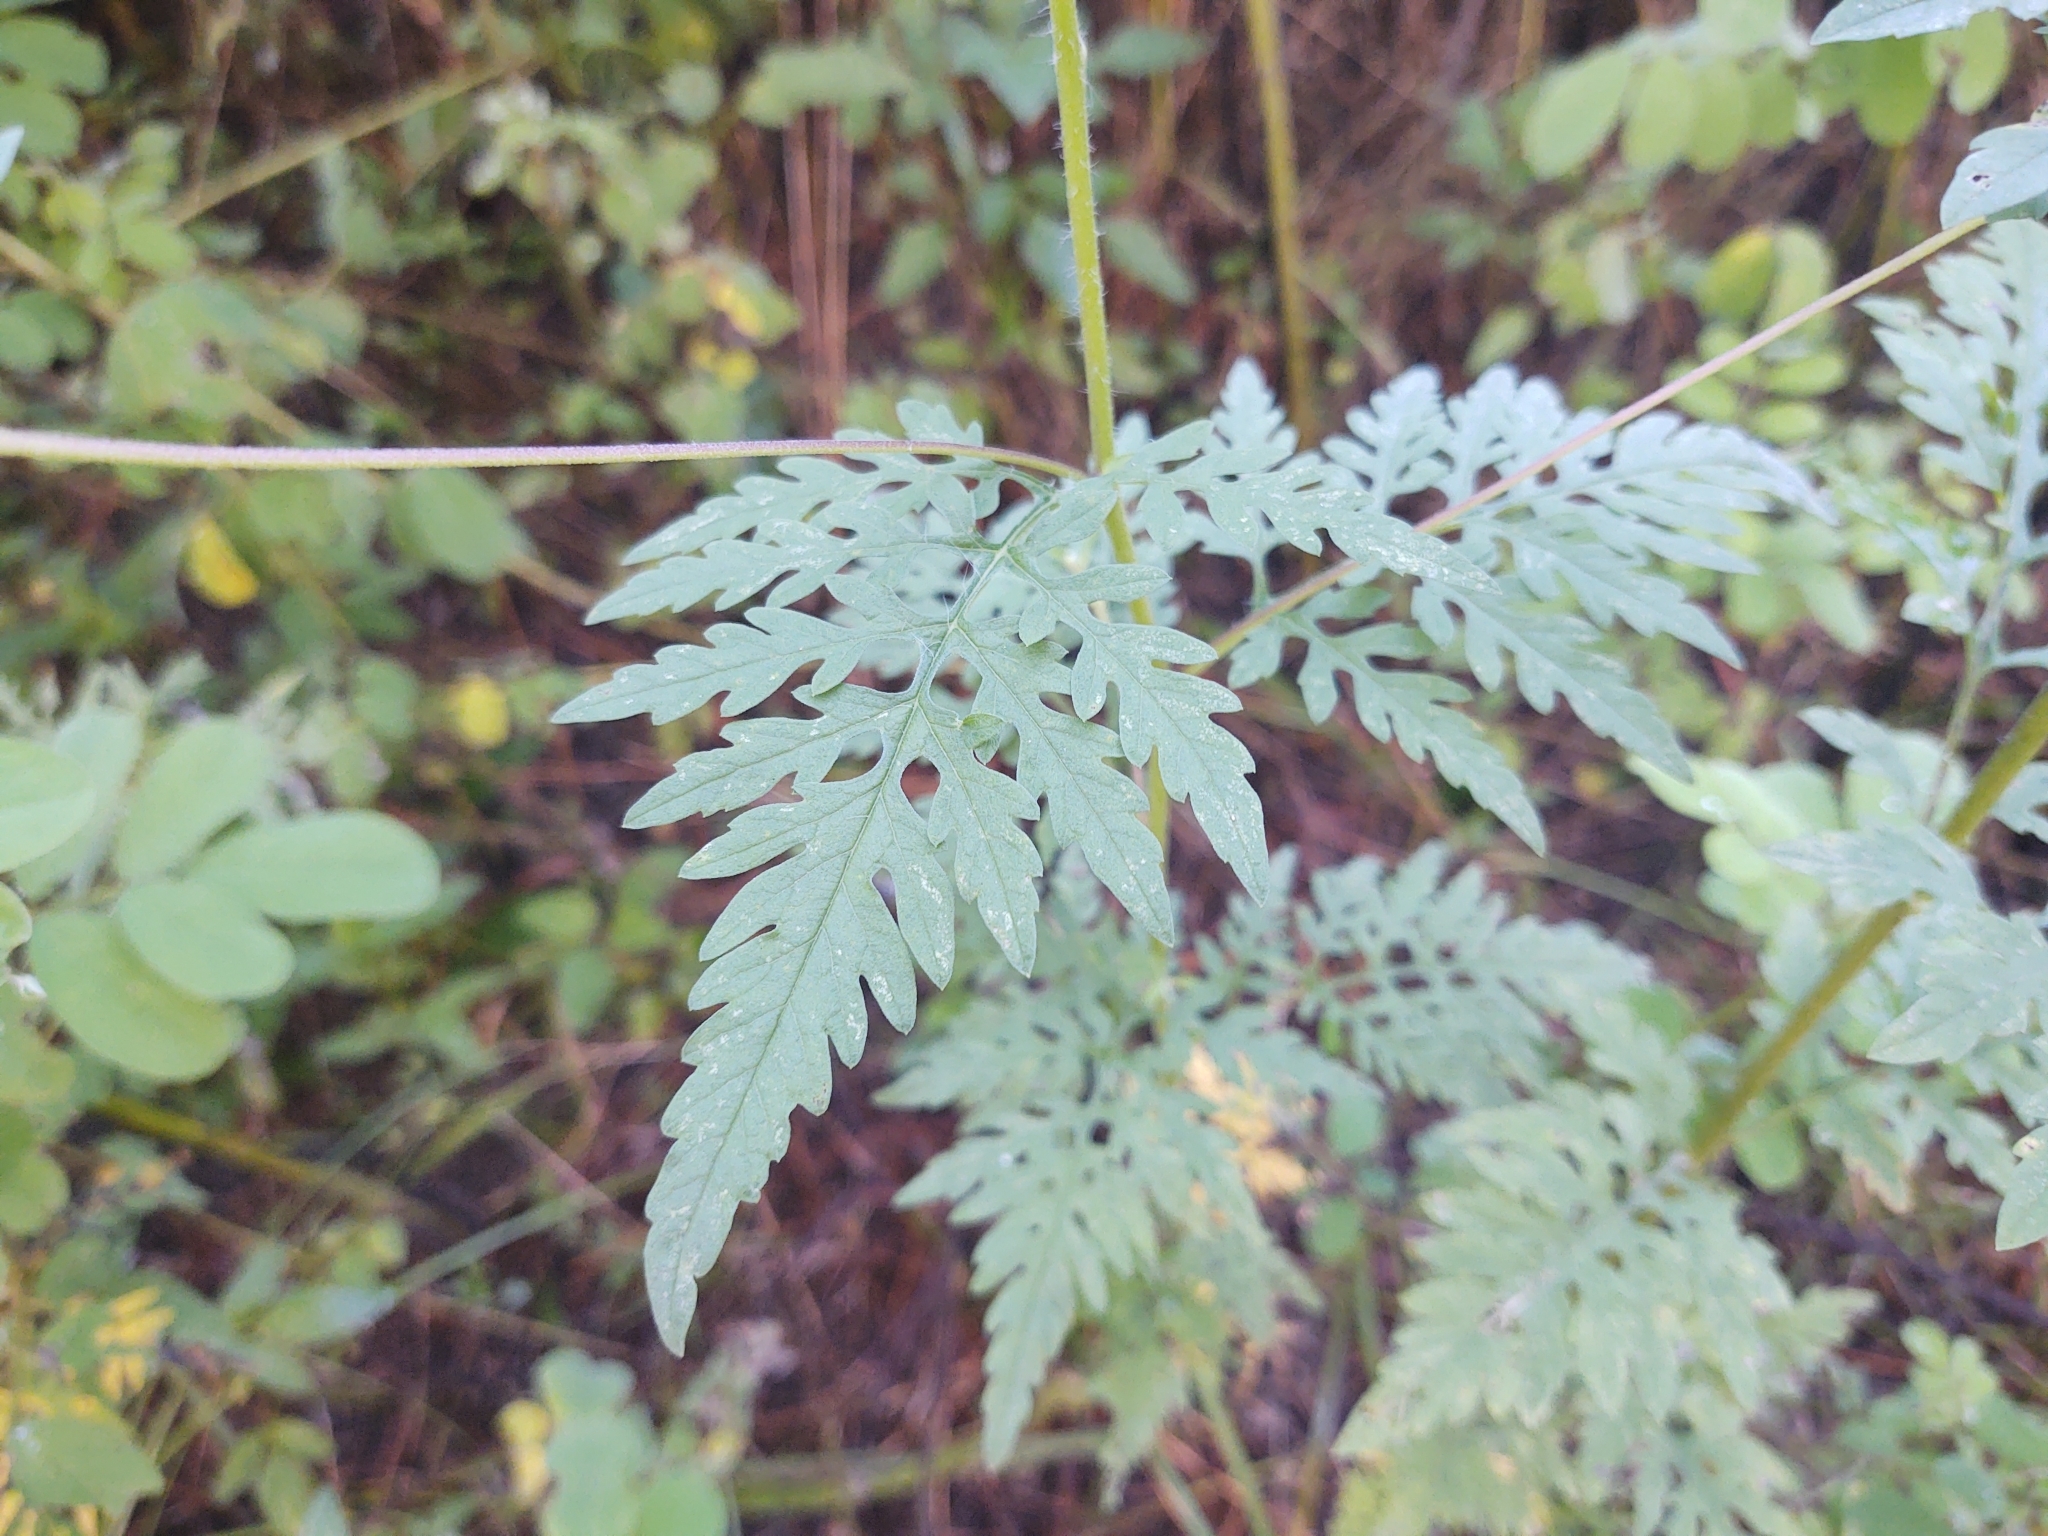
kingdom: Plantae
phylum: Tracheophyta
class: Magnoliopsida
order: Asterales
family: Asteraceae
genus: Ambrosia
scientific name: Ambrosia artemisiifolia
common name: Annual ragweed
